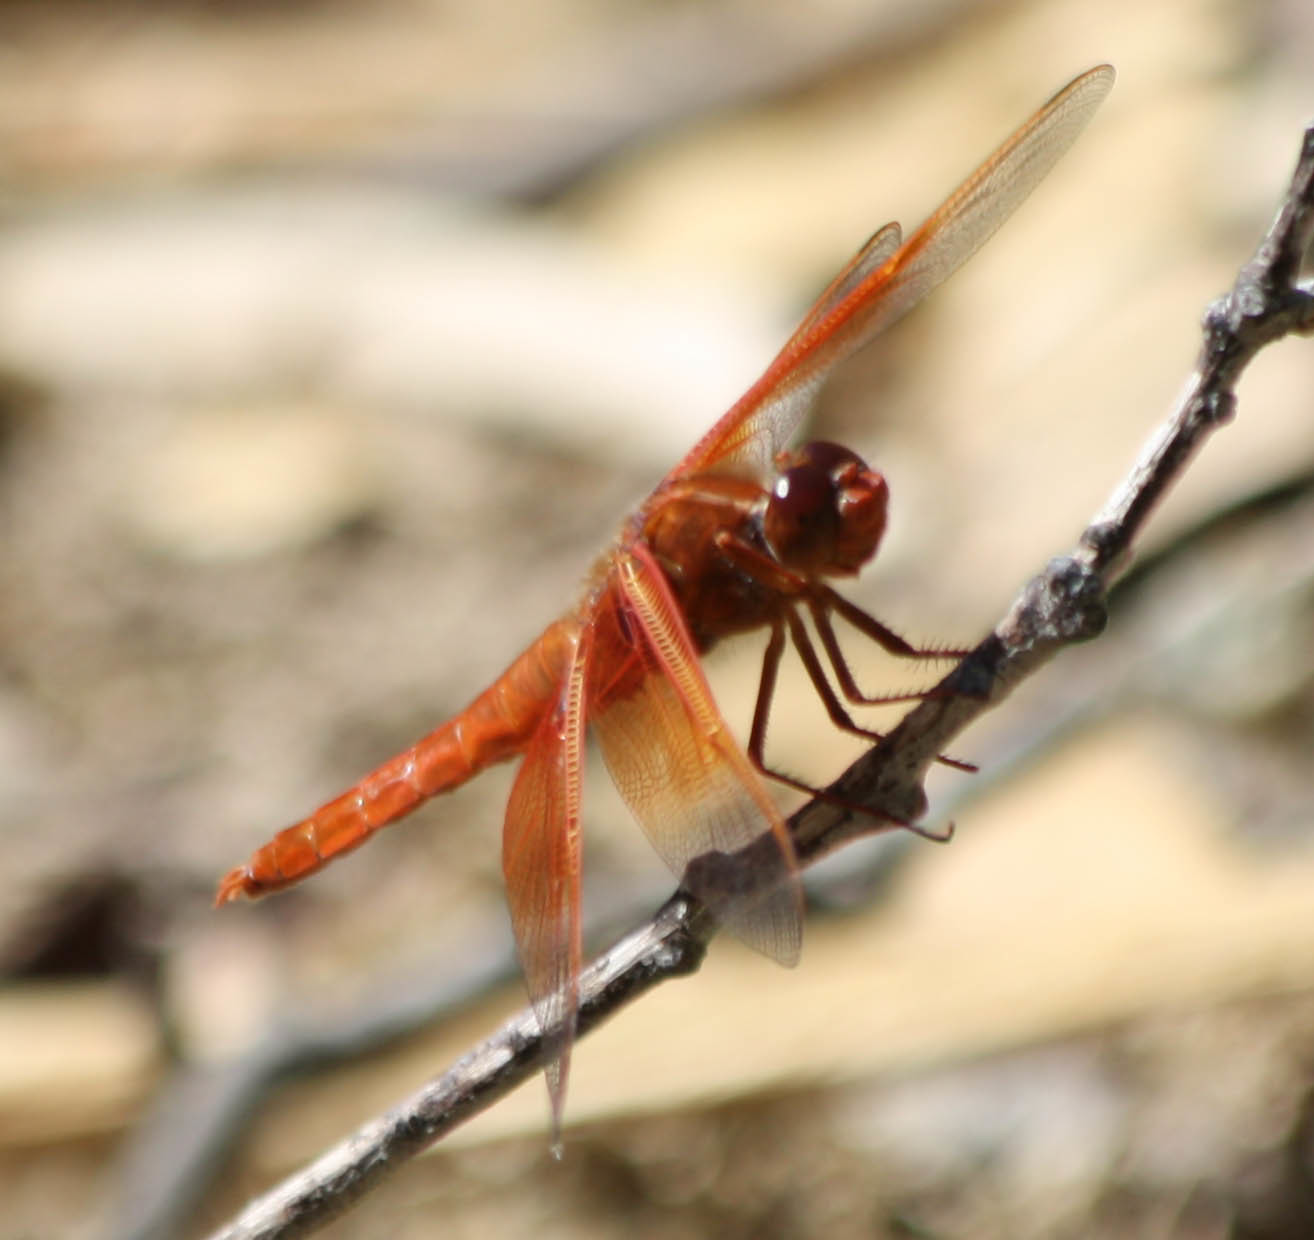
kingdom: Animalia
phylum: Arthropoda
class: Insecta
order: Odonata
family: Libellulidae
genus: Libellula
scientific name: Libellula saturata
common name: Flame skimmer
